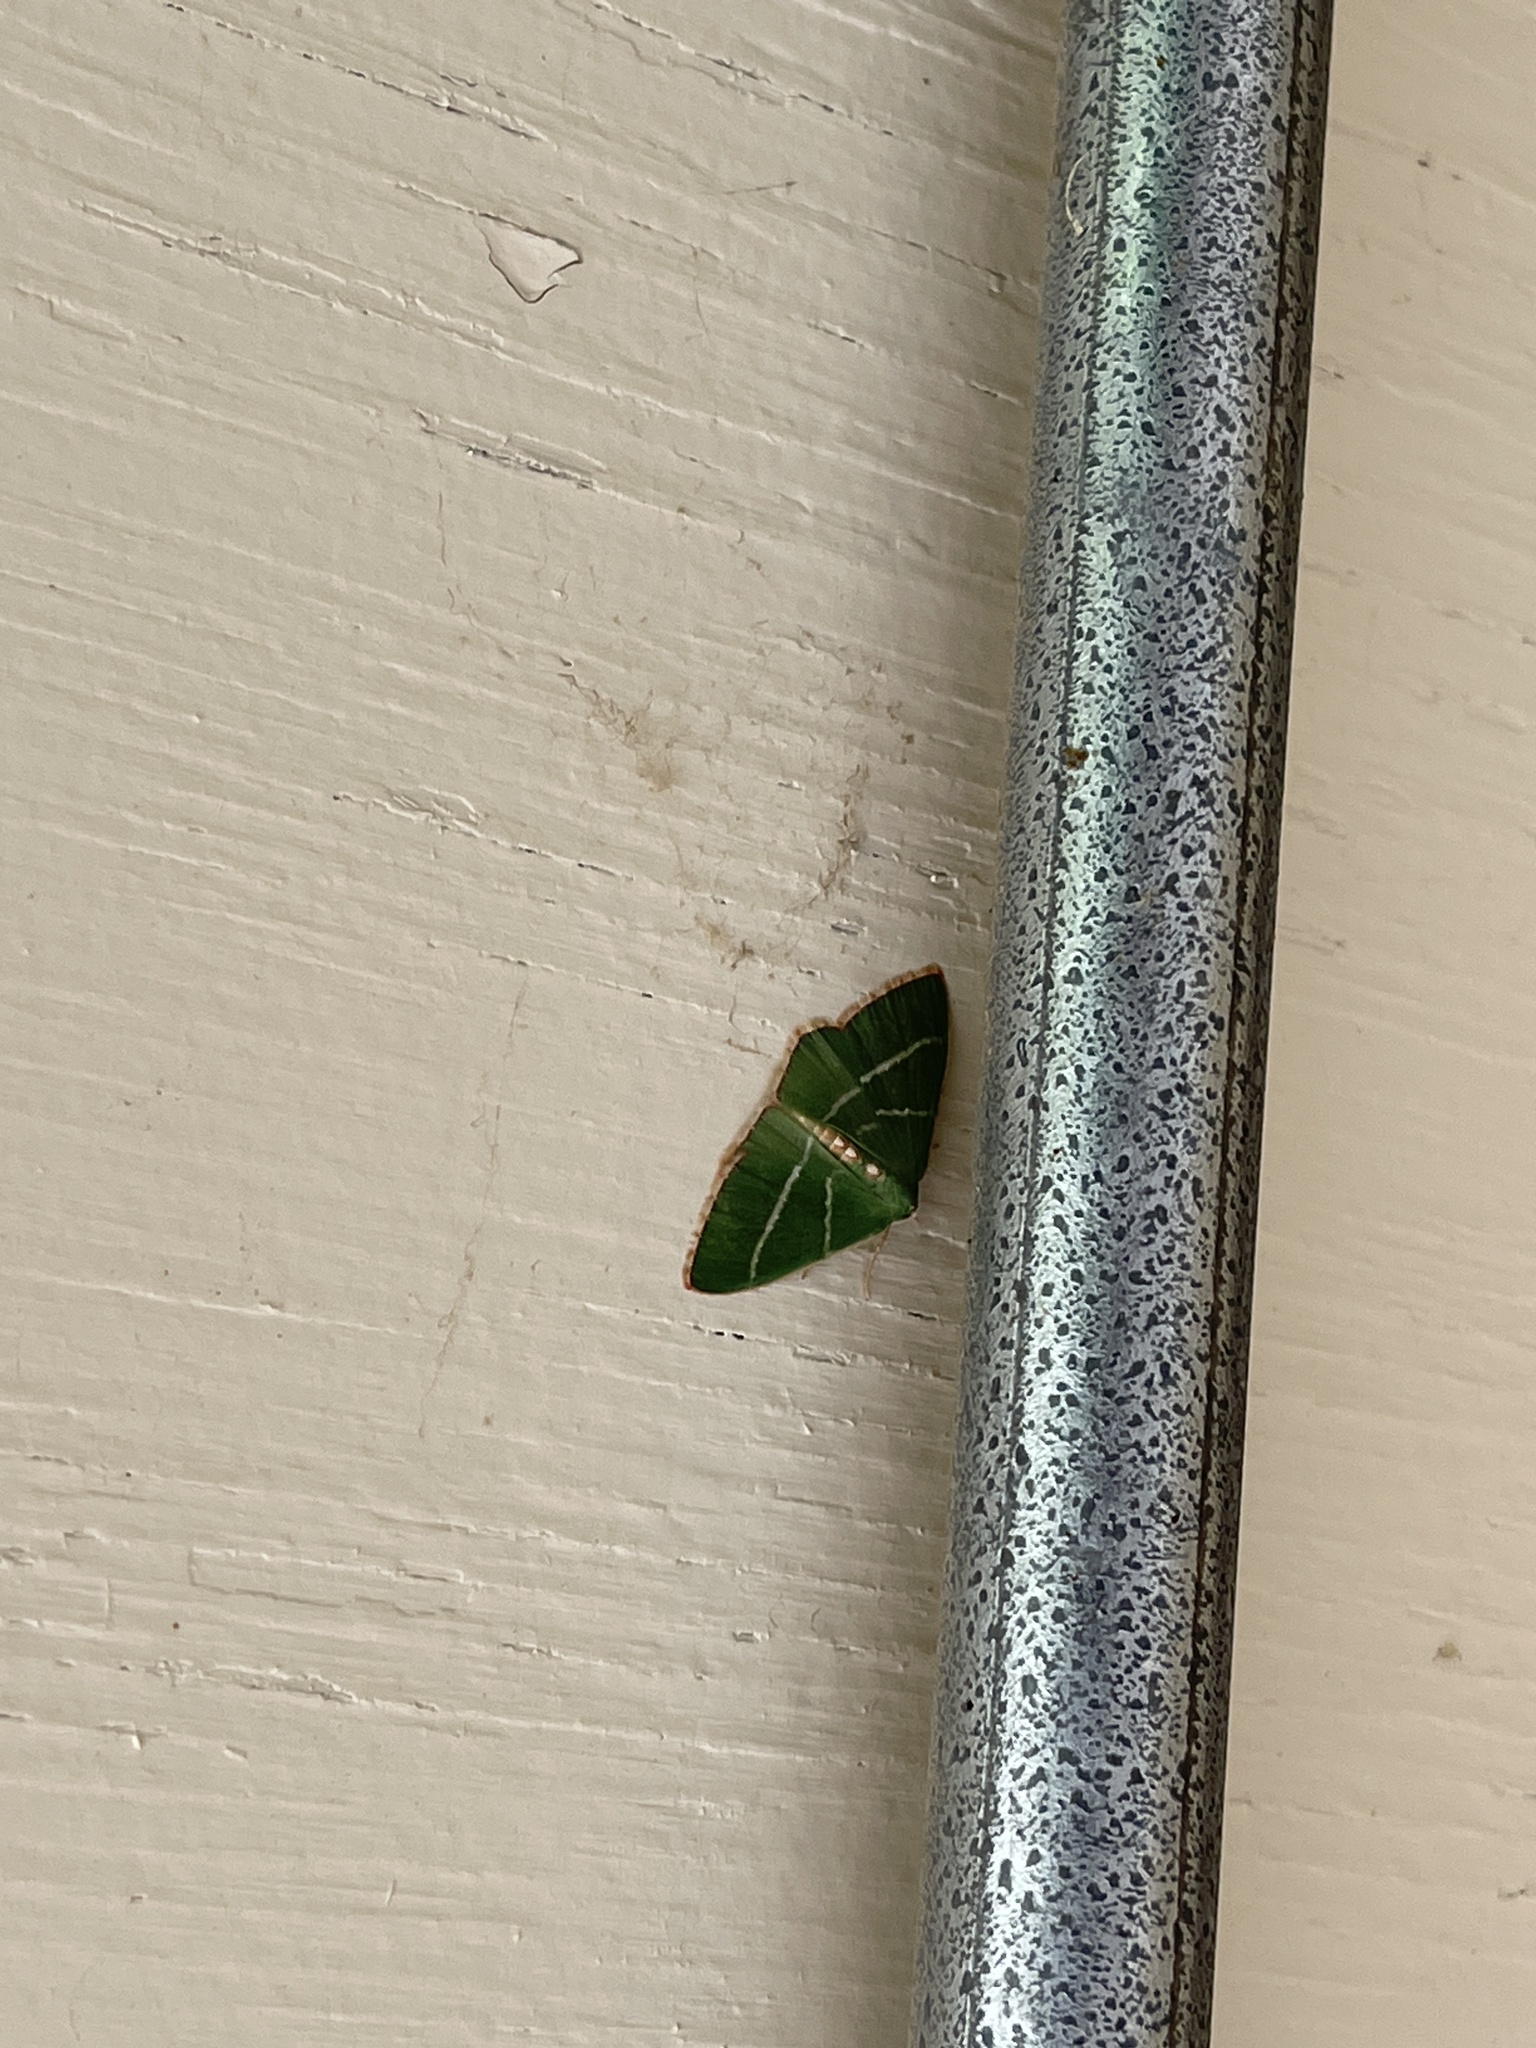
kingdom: Animalia
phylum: Arthropoda
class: Insecta
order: Lepidoptera
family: Geometridae
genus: Nemoria
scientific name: Nemoria obliqua
